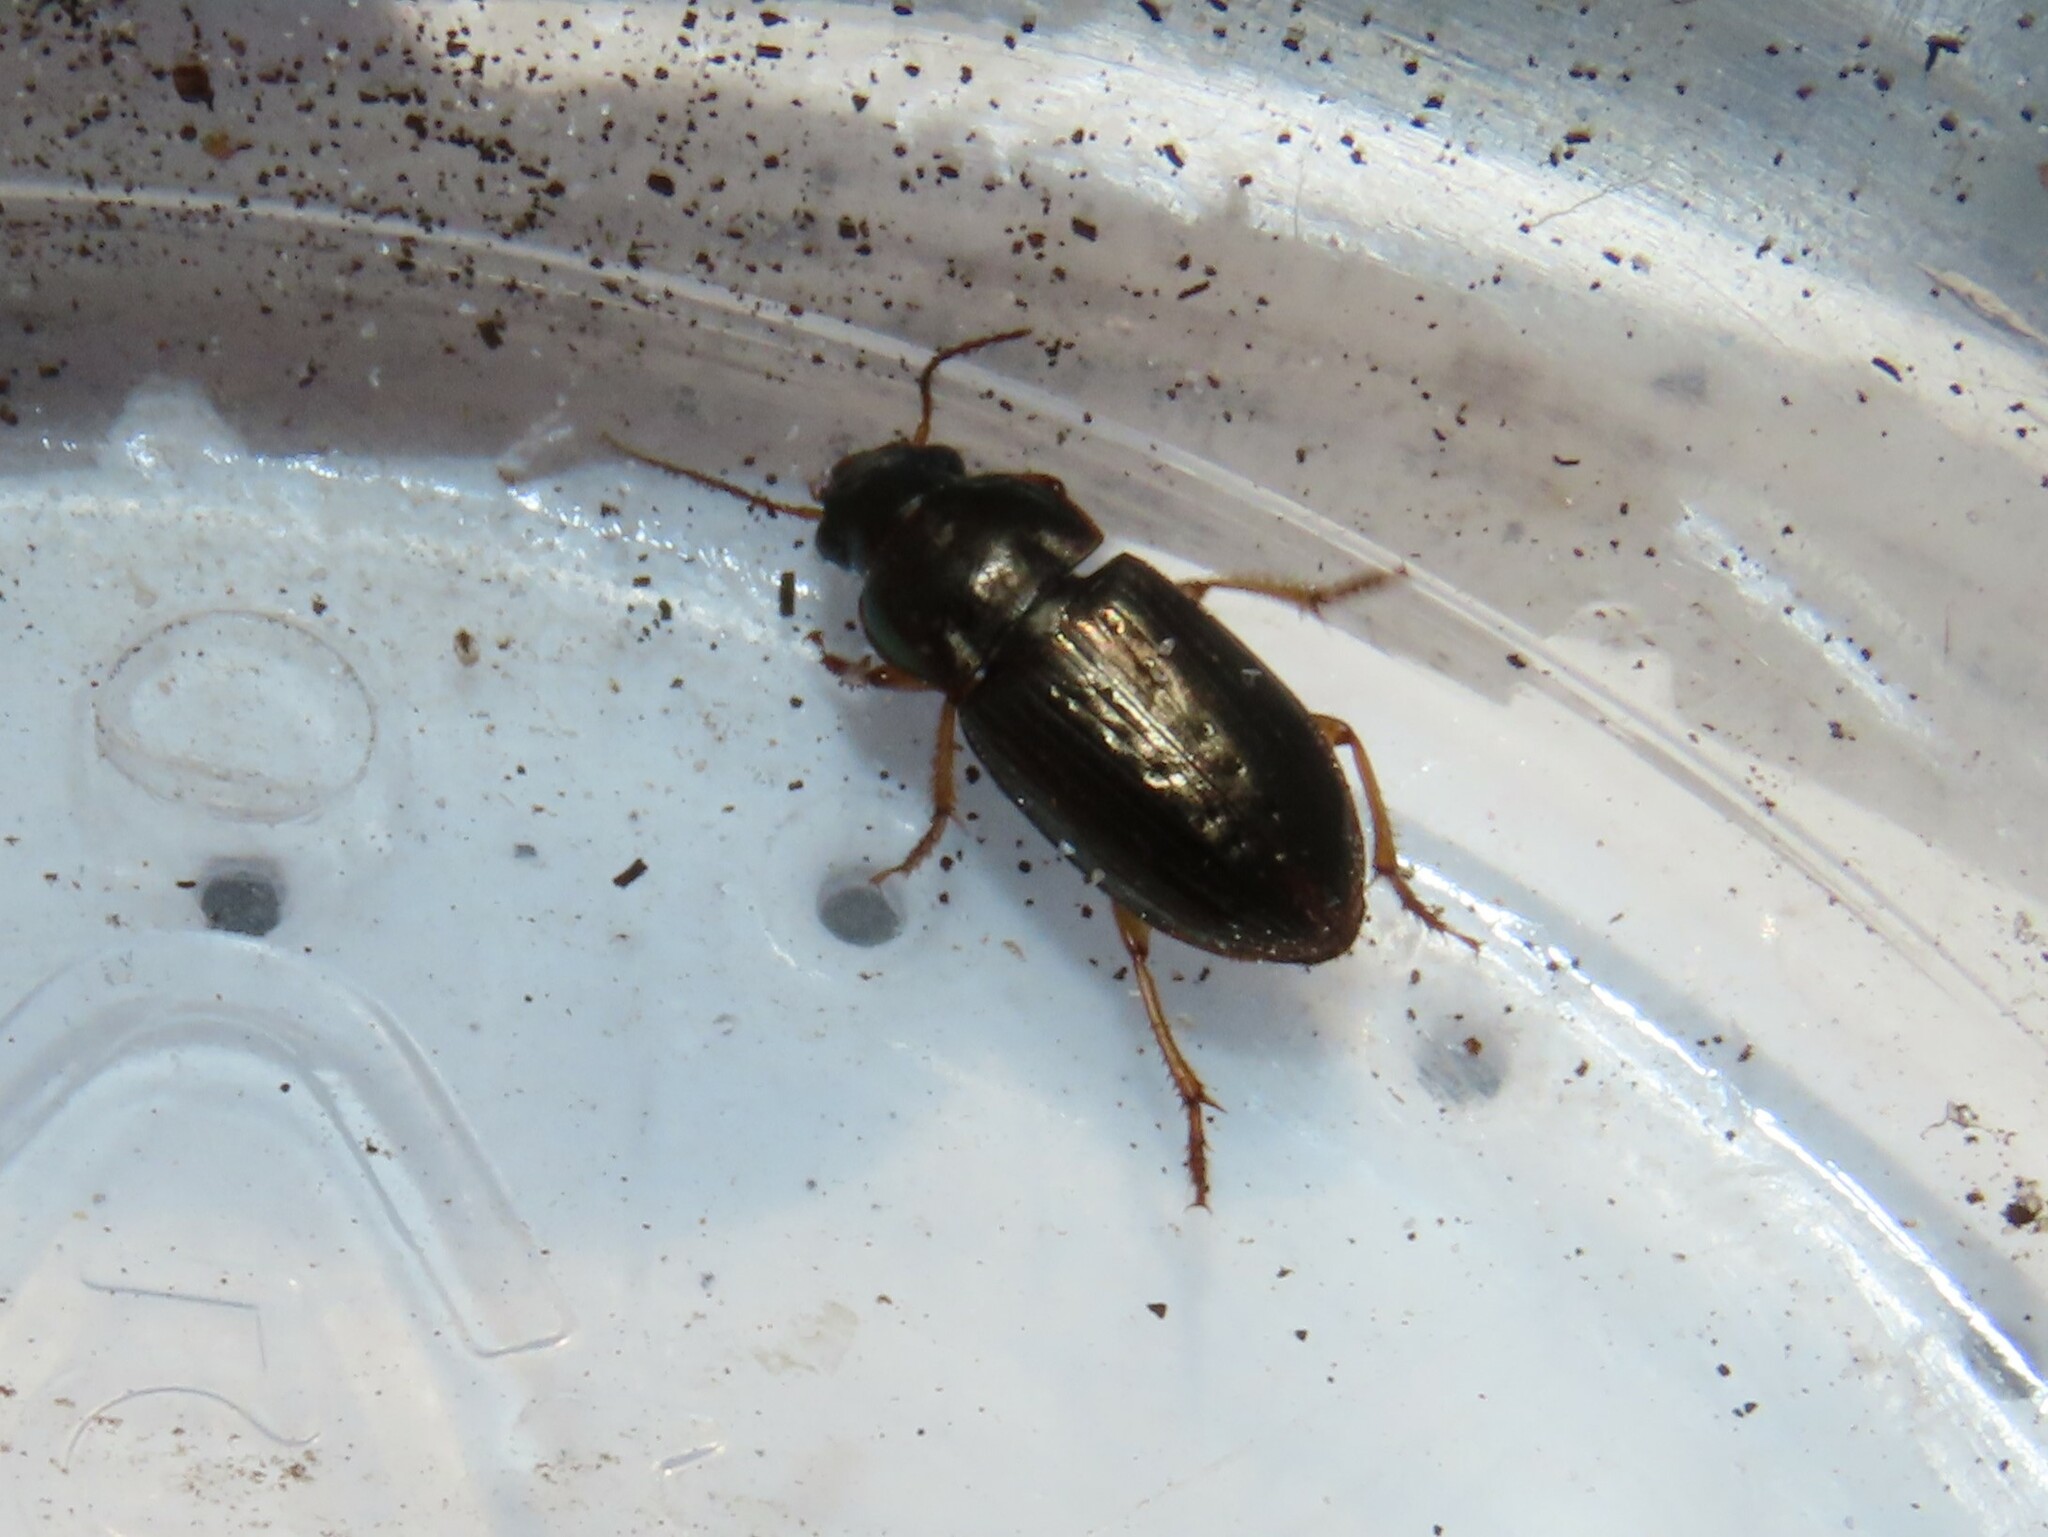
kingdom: Animalia
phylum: Arthropoda
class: Insecta
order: Coleoptera
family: Carabidae
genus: Selenophorus
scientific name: Selenophorus palliatus
